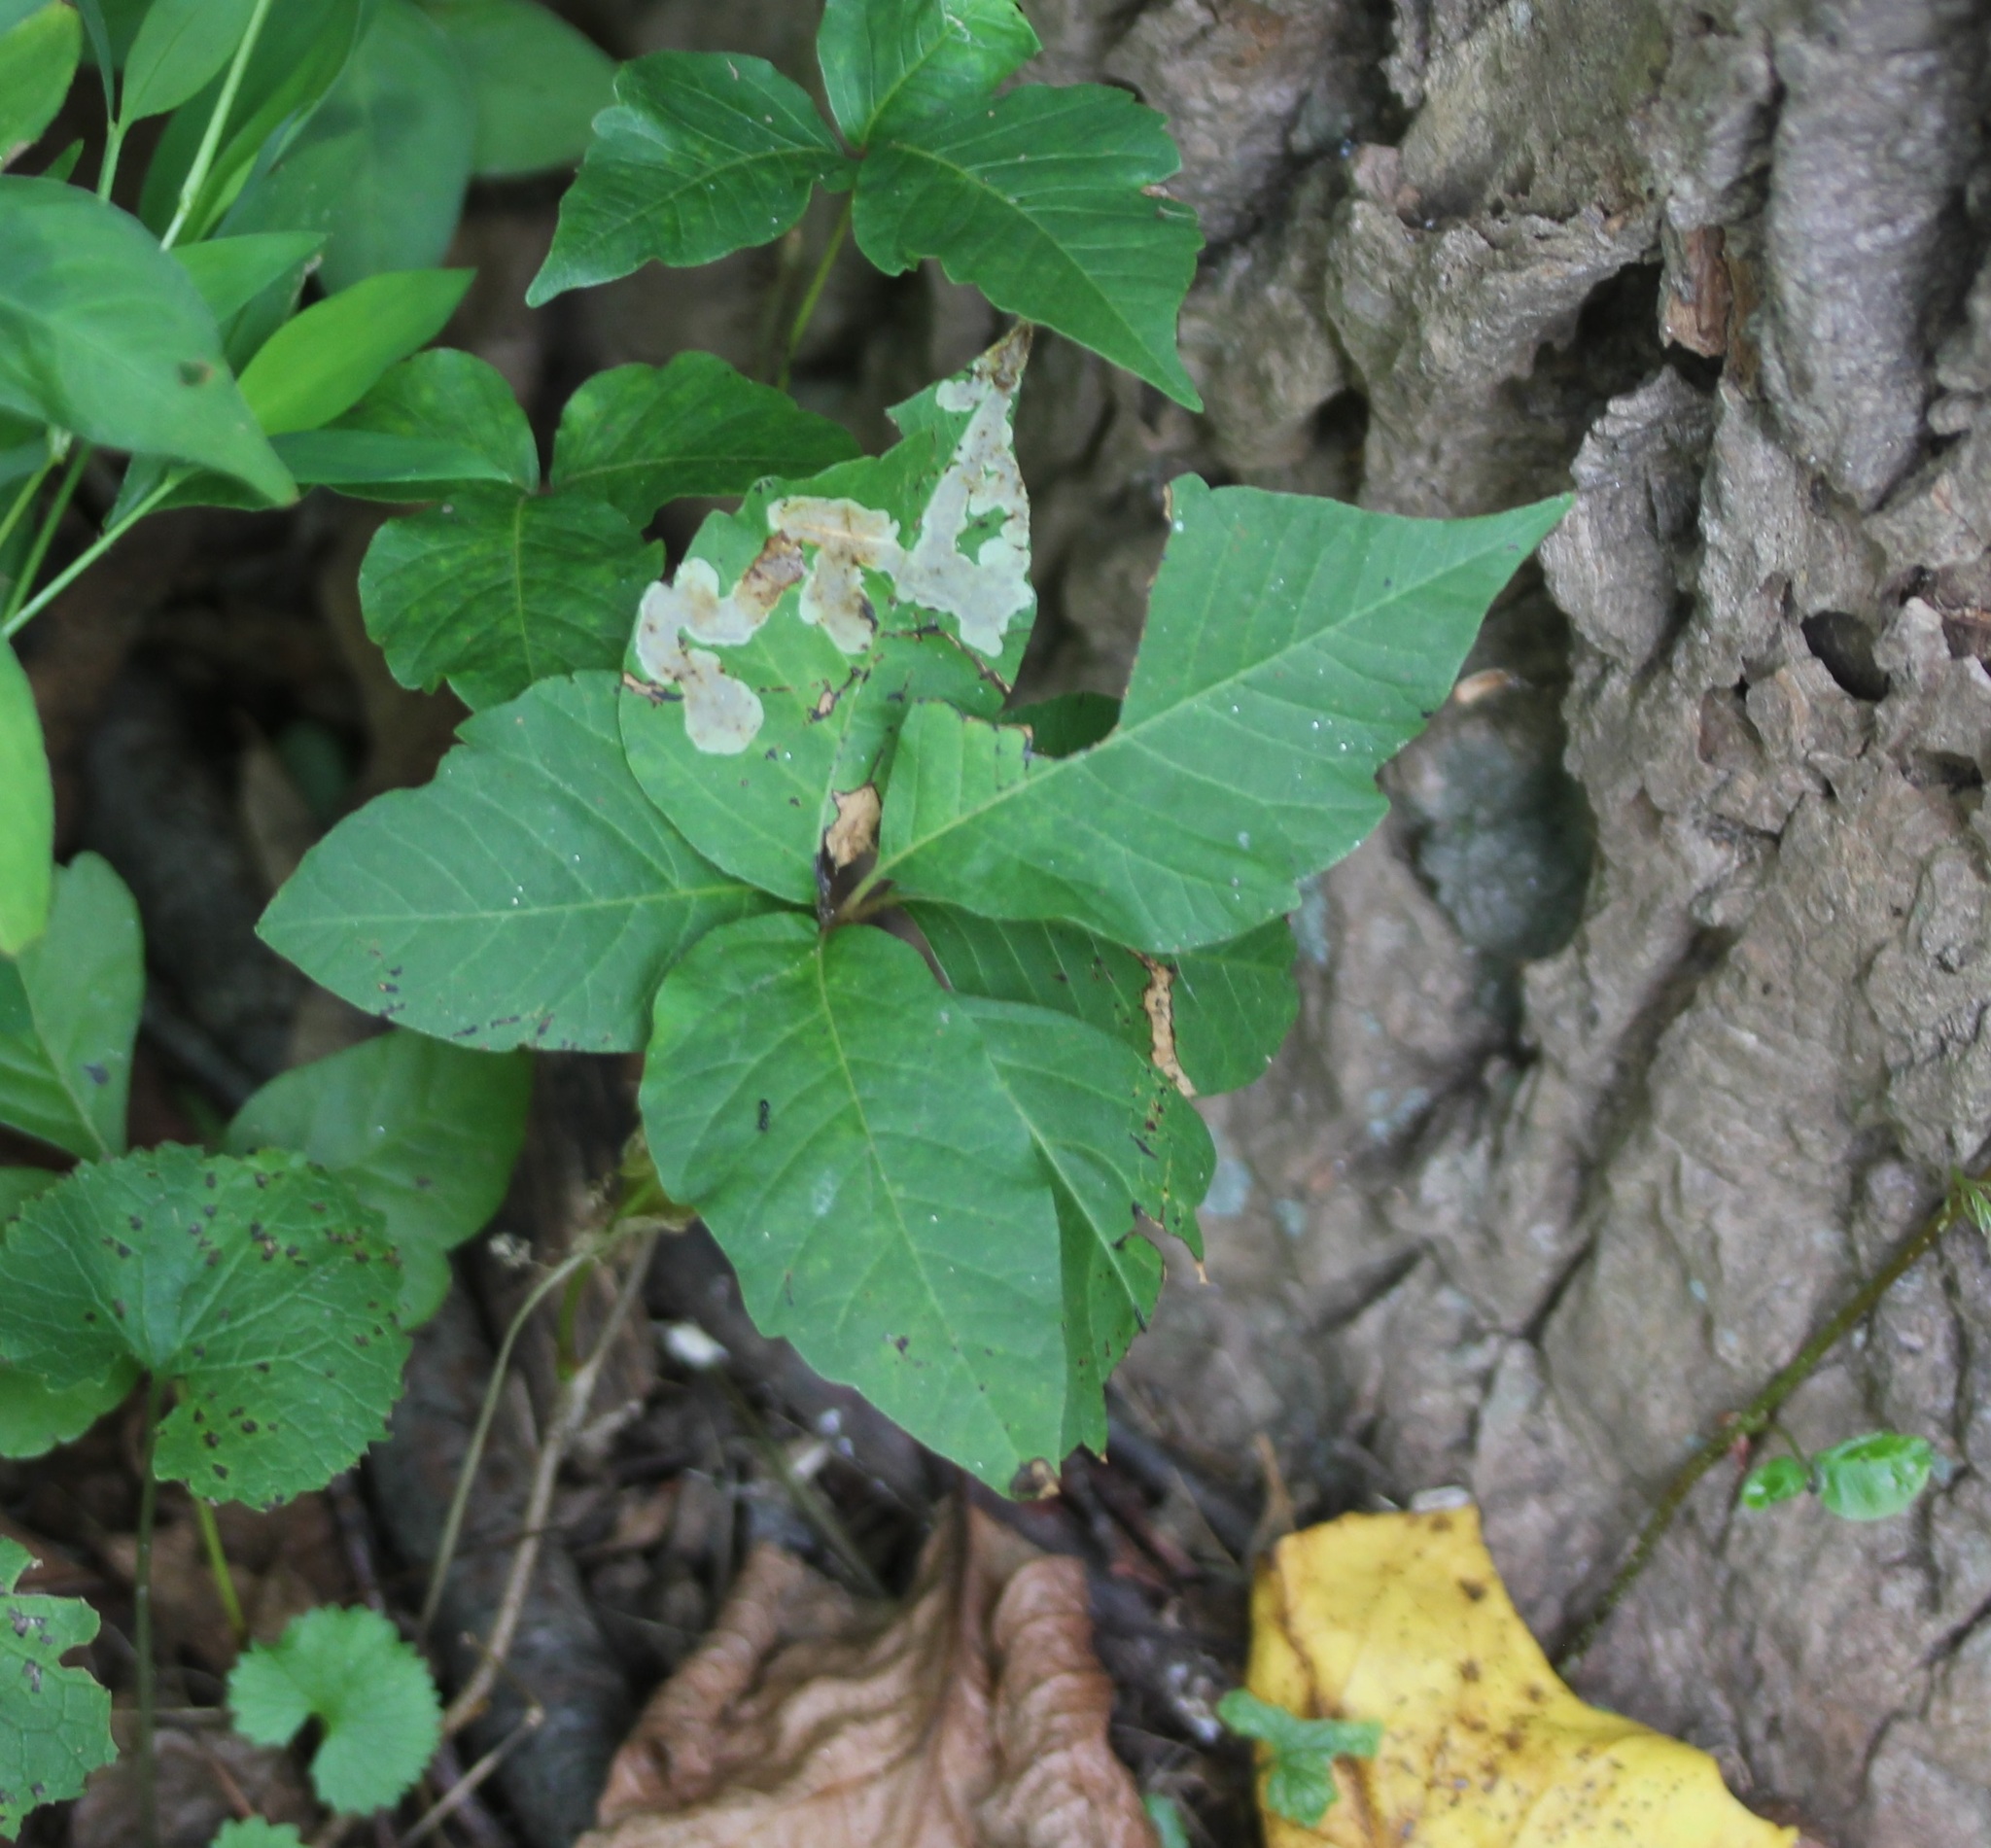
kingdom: Animalia
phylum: Arthropoda
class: Insecta
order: Lepidoptera
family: Gracillariidae
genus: Cameraria
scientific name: Cameraria guttifinitella
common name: Poison ivy leaf-miner moth
